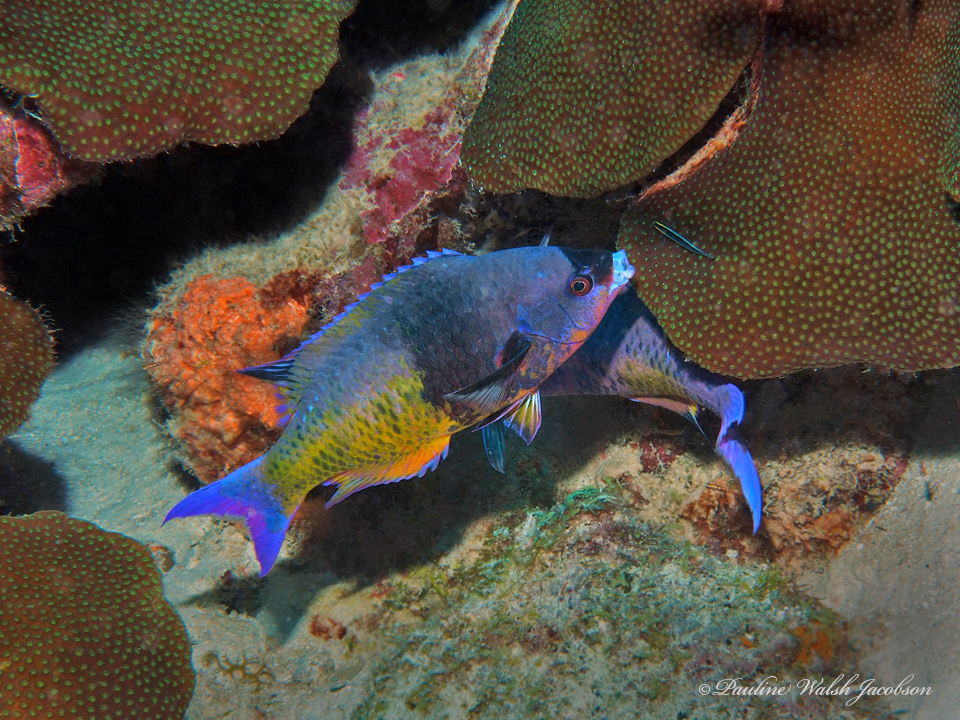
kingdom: Animalia
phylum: Chordata
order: Perciformes
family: Labridae
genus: Bodianus
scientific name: Bodianus
